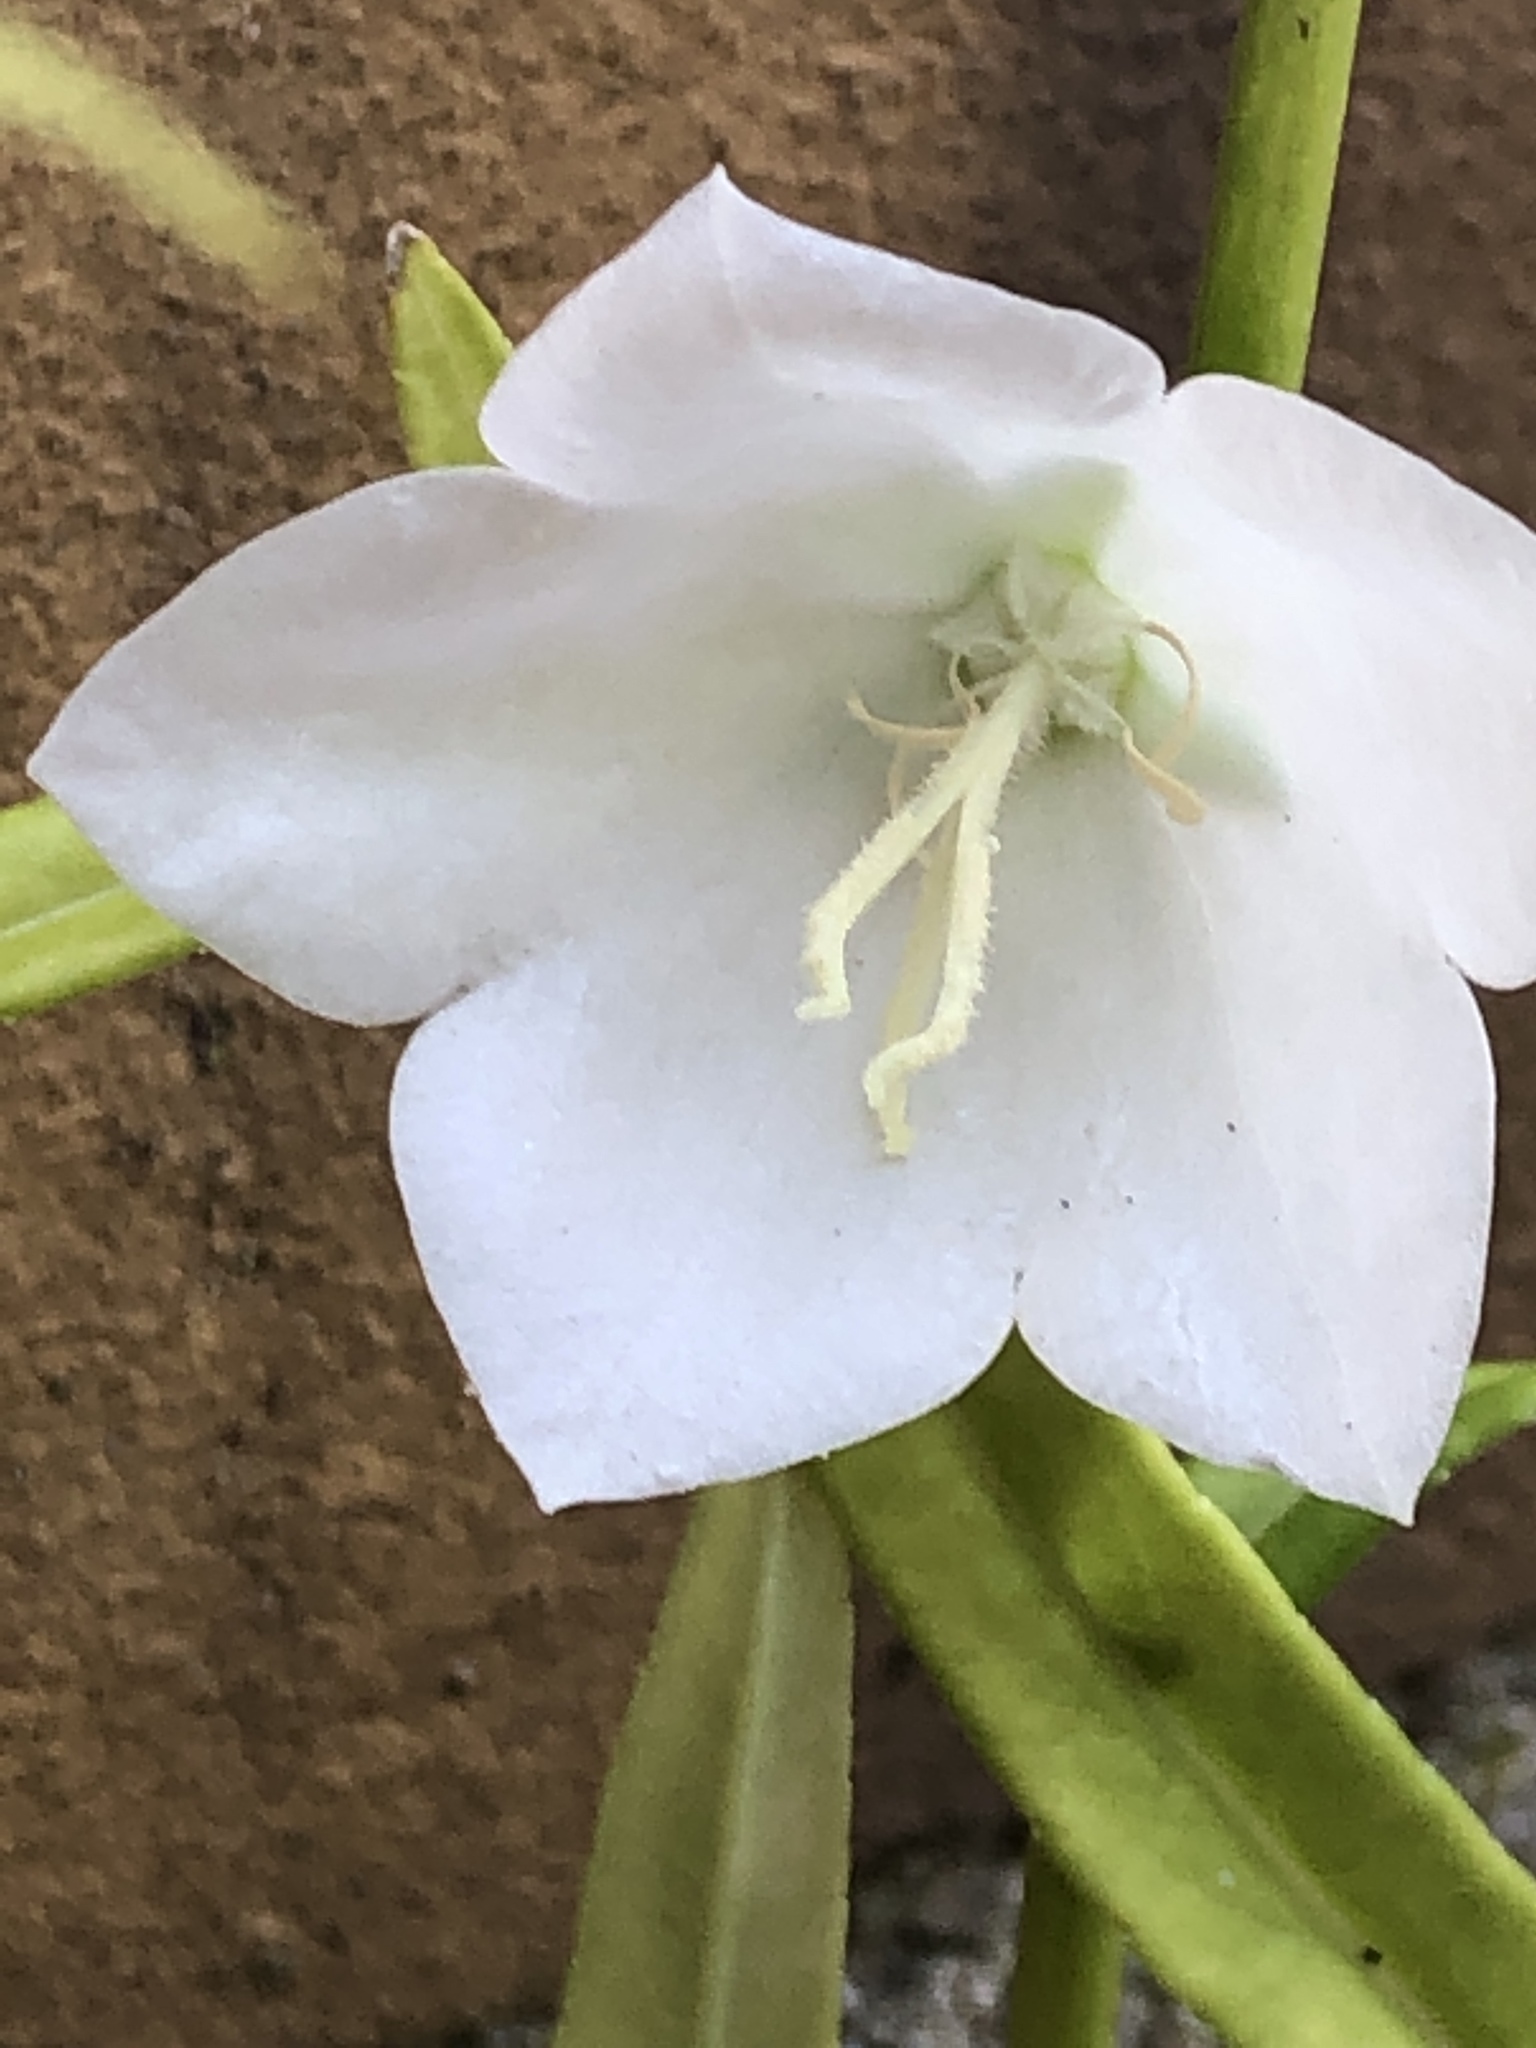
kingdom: Plantae
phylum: Tracheophyta
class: Magnoliopsida
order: Asterales
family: Campanulaceae
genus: Campanula
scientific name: Campanula persicifolia
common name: Peach-leaved bellflower
